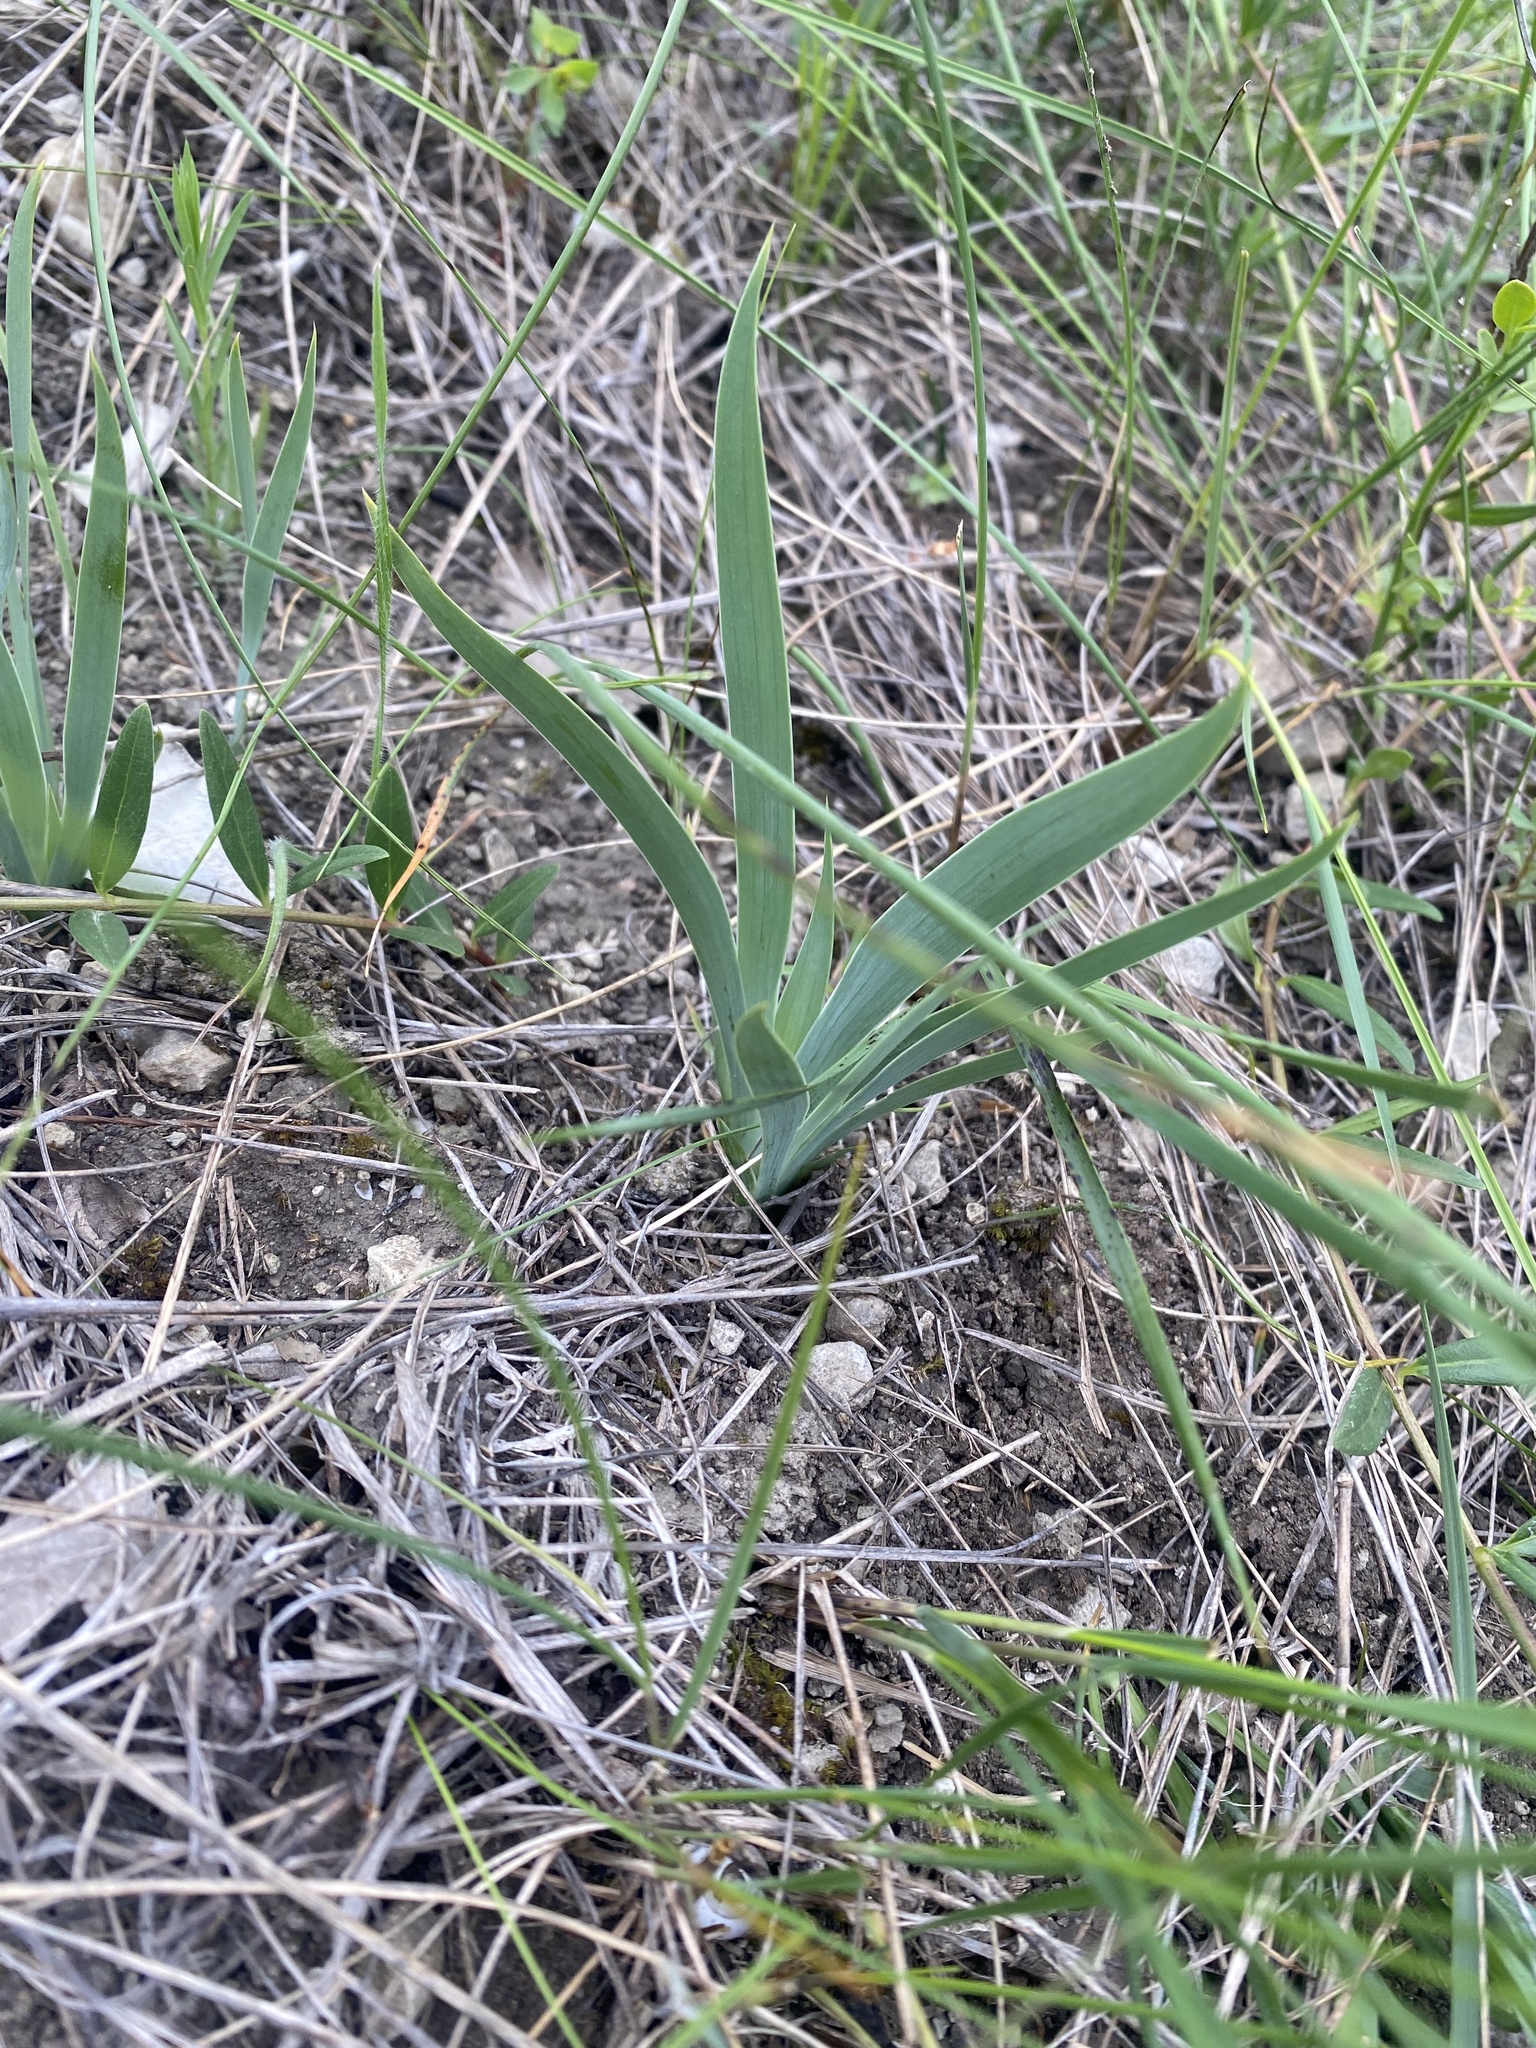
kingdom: Plantae
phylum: Tracheophyta
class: Liliopsida
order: Asparagales
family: Iridaceae
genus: Iris
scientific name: Iris pumila
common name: Dwarf iris
